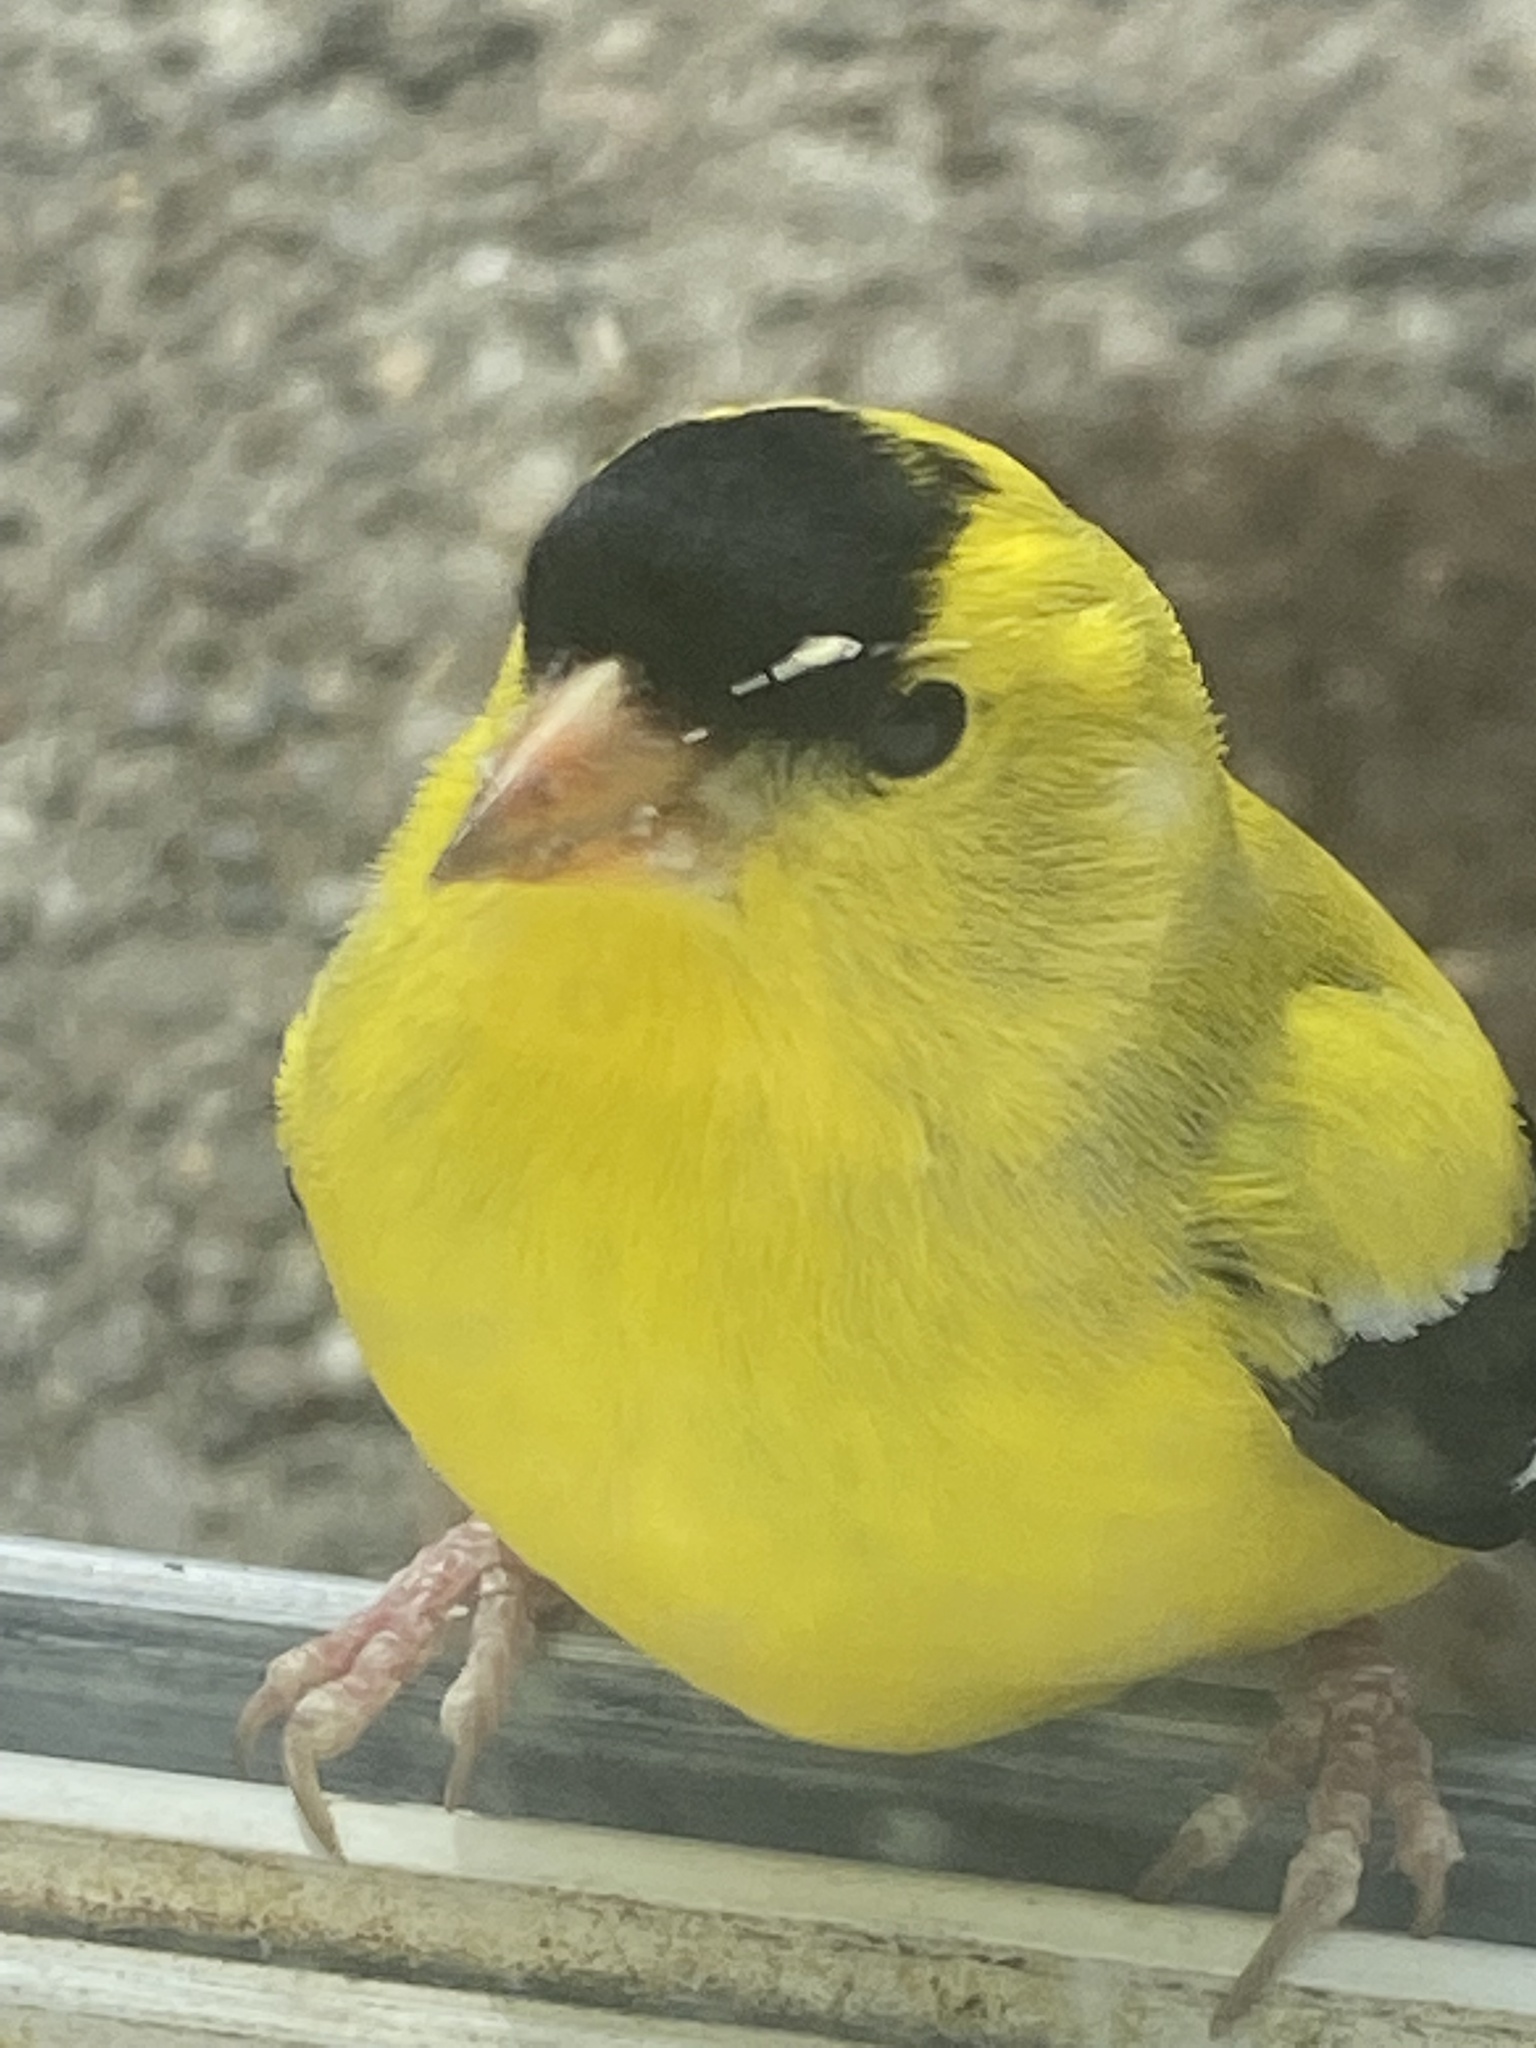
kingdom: Animalia
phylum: Chordata
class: Aves
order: Passeriformes
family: Fringillidae
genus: Spinus
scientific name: Spinus tristis
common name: American goldfinch
